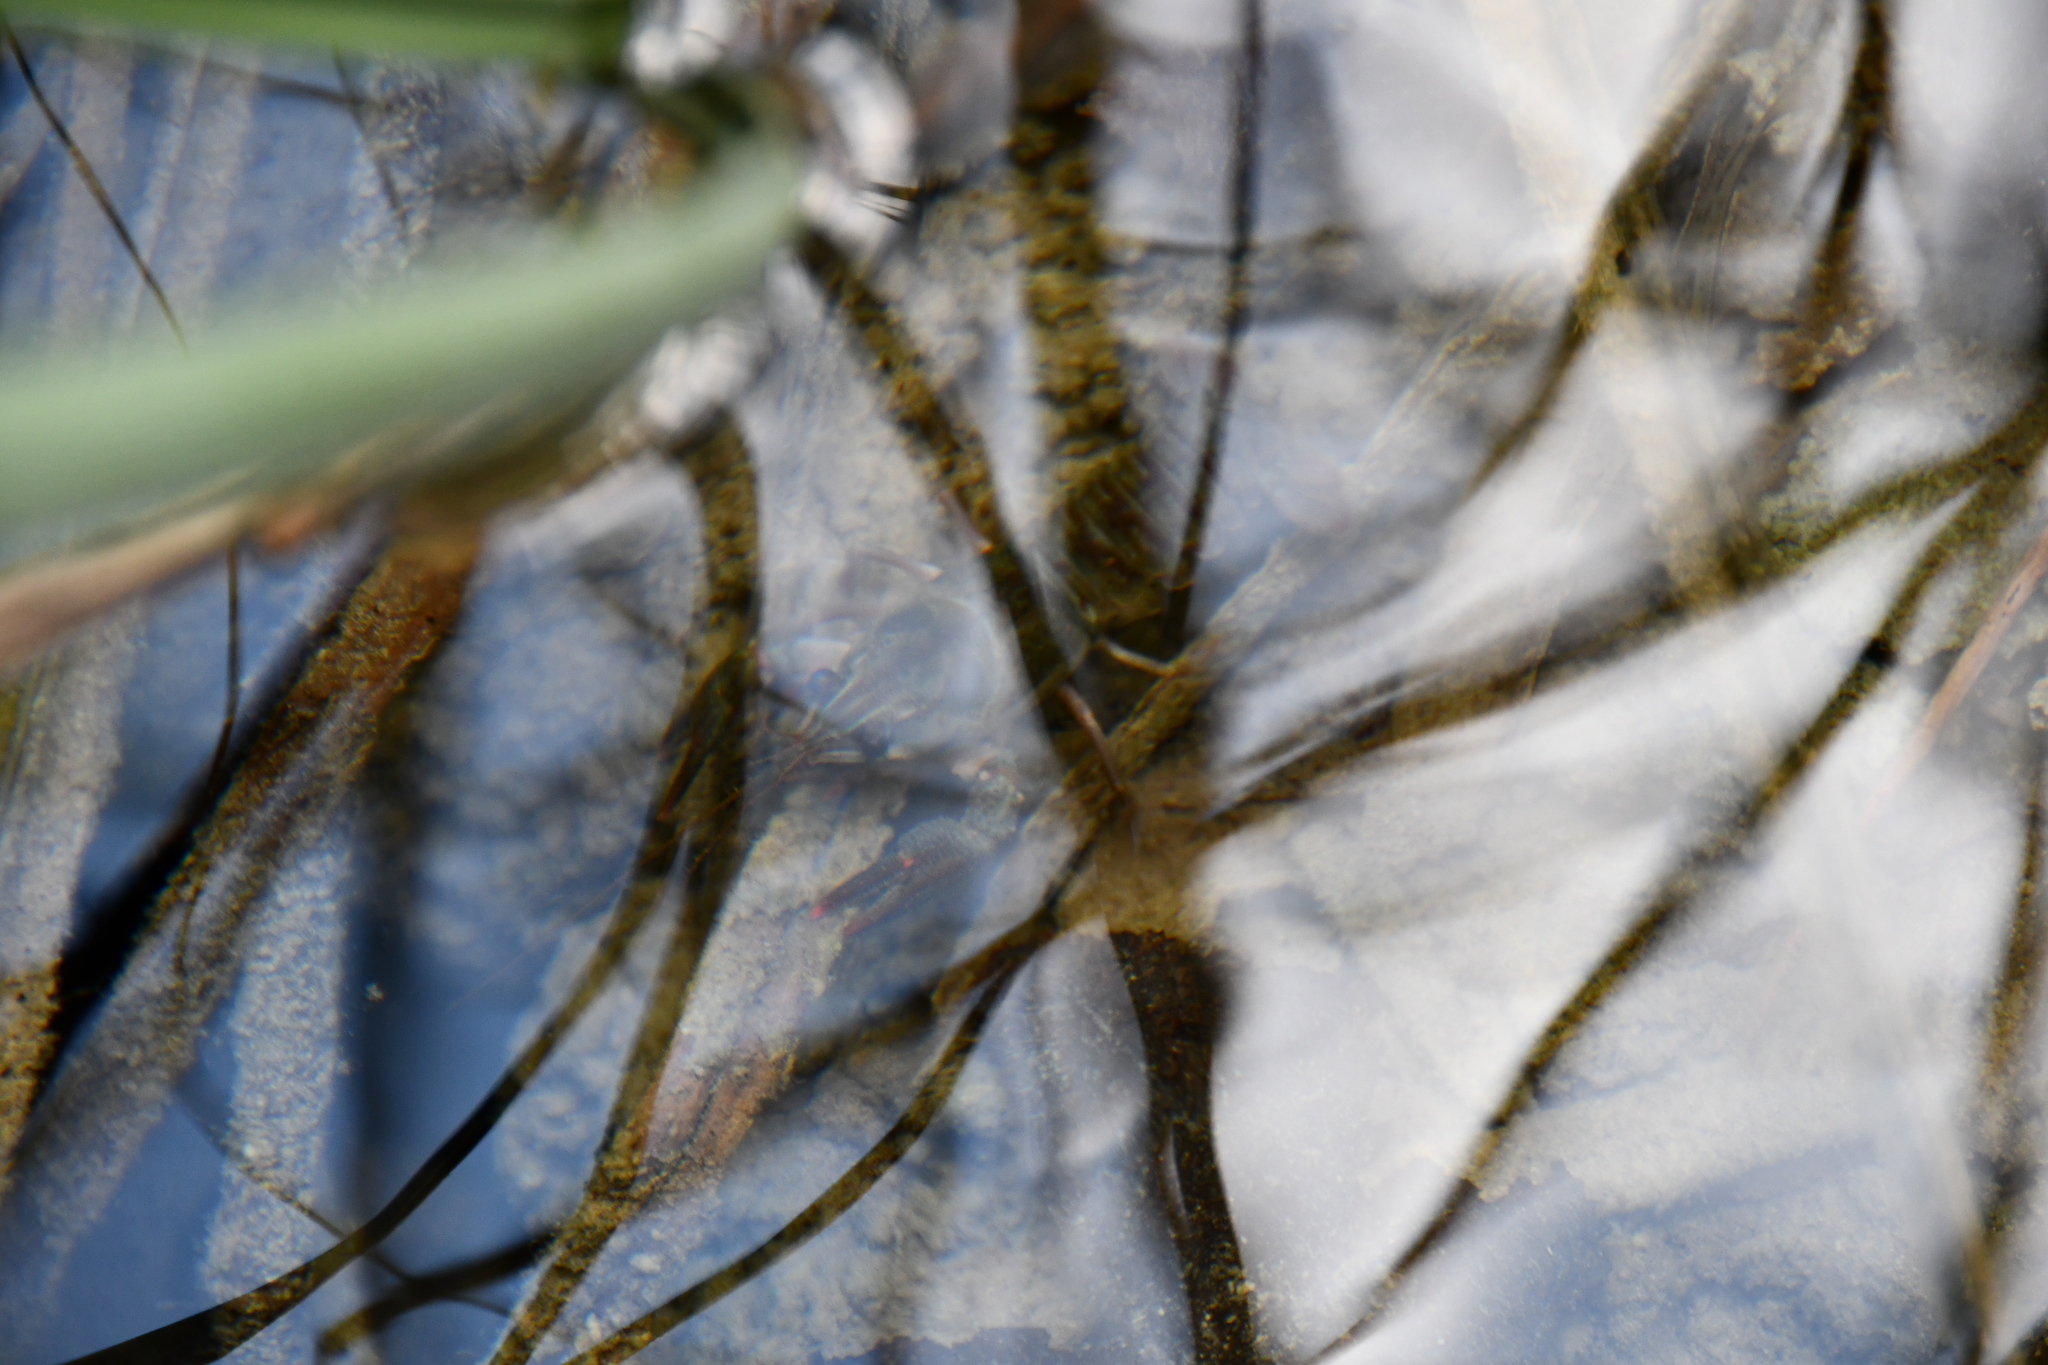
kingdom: Animalia
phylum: Arthropoda
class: Malacostraca
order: Decapoda
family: Astacidae
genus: Astacus
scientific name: Astacus astacus
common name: Noble crayfish
